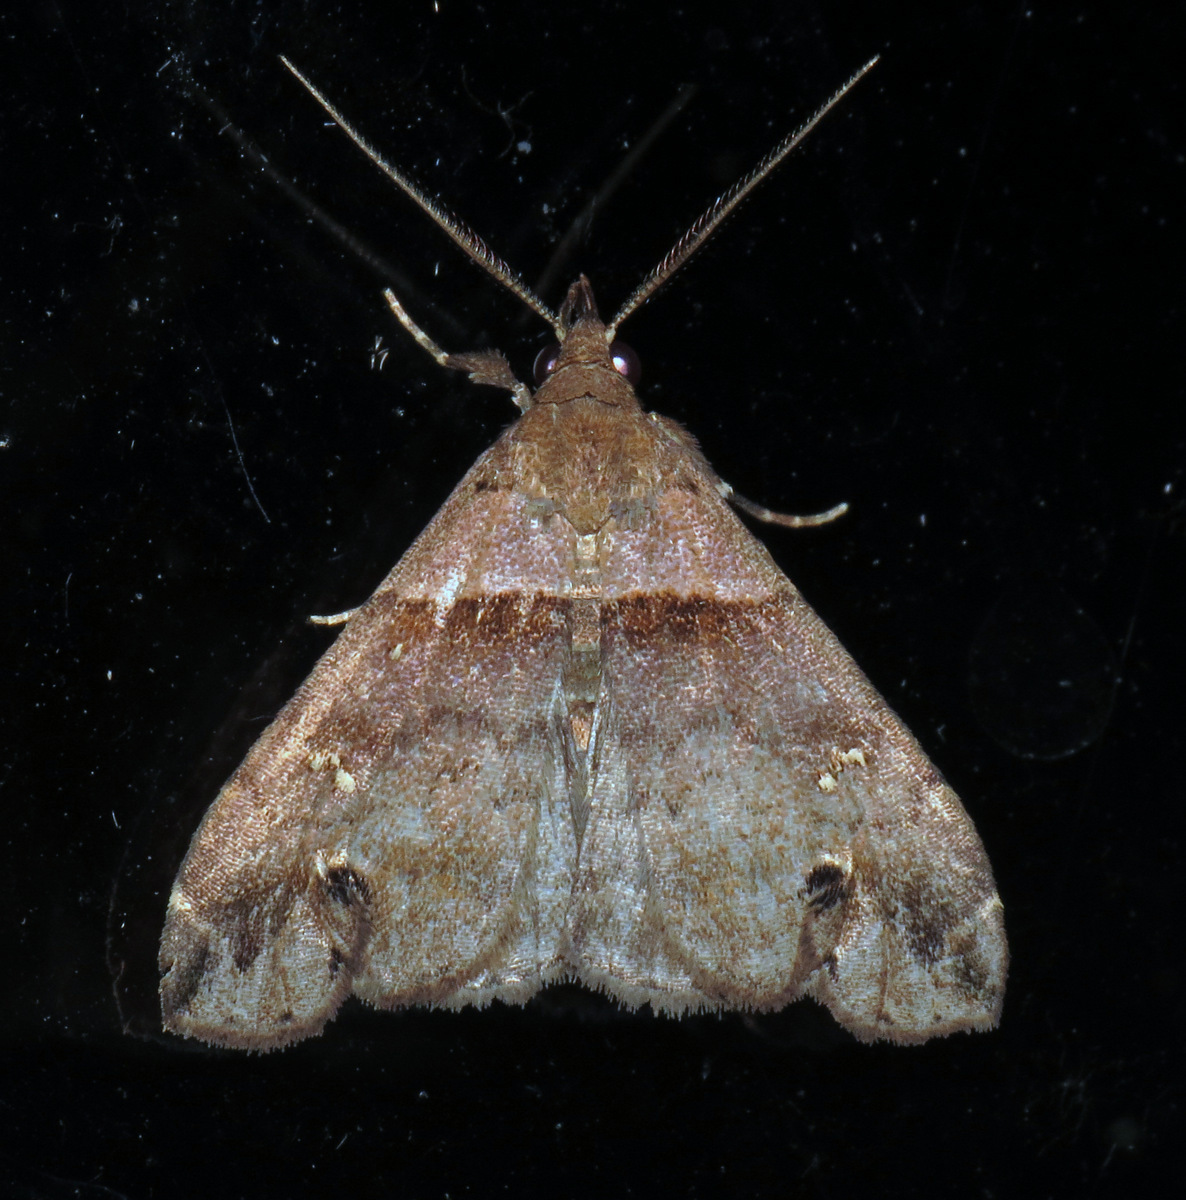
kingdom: Animalia
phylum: Arthropoda
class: Insecta
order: Lepidoptera
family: Erebidae
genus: Lascoria
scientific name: Lascoria ambigualis
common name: Ambiguous moth
